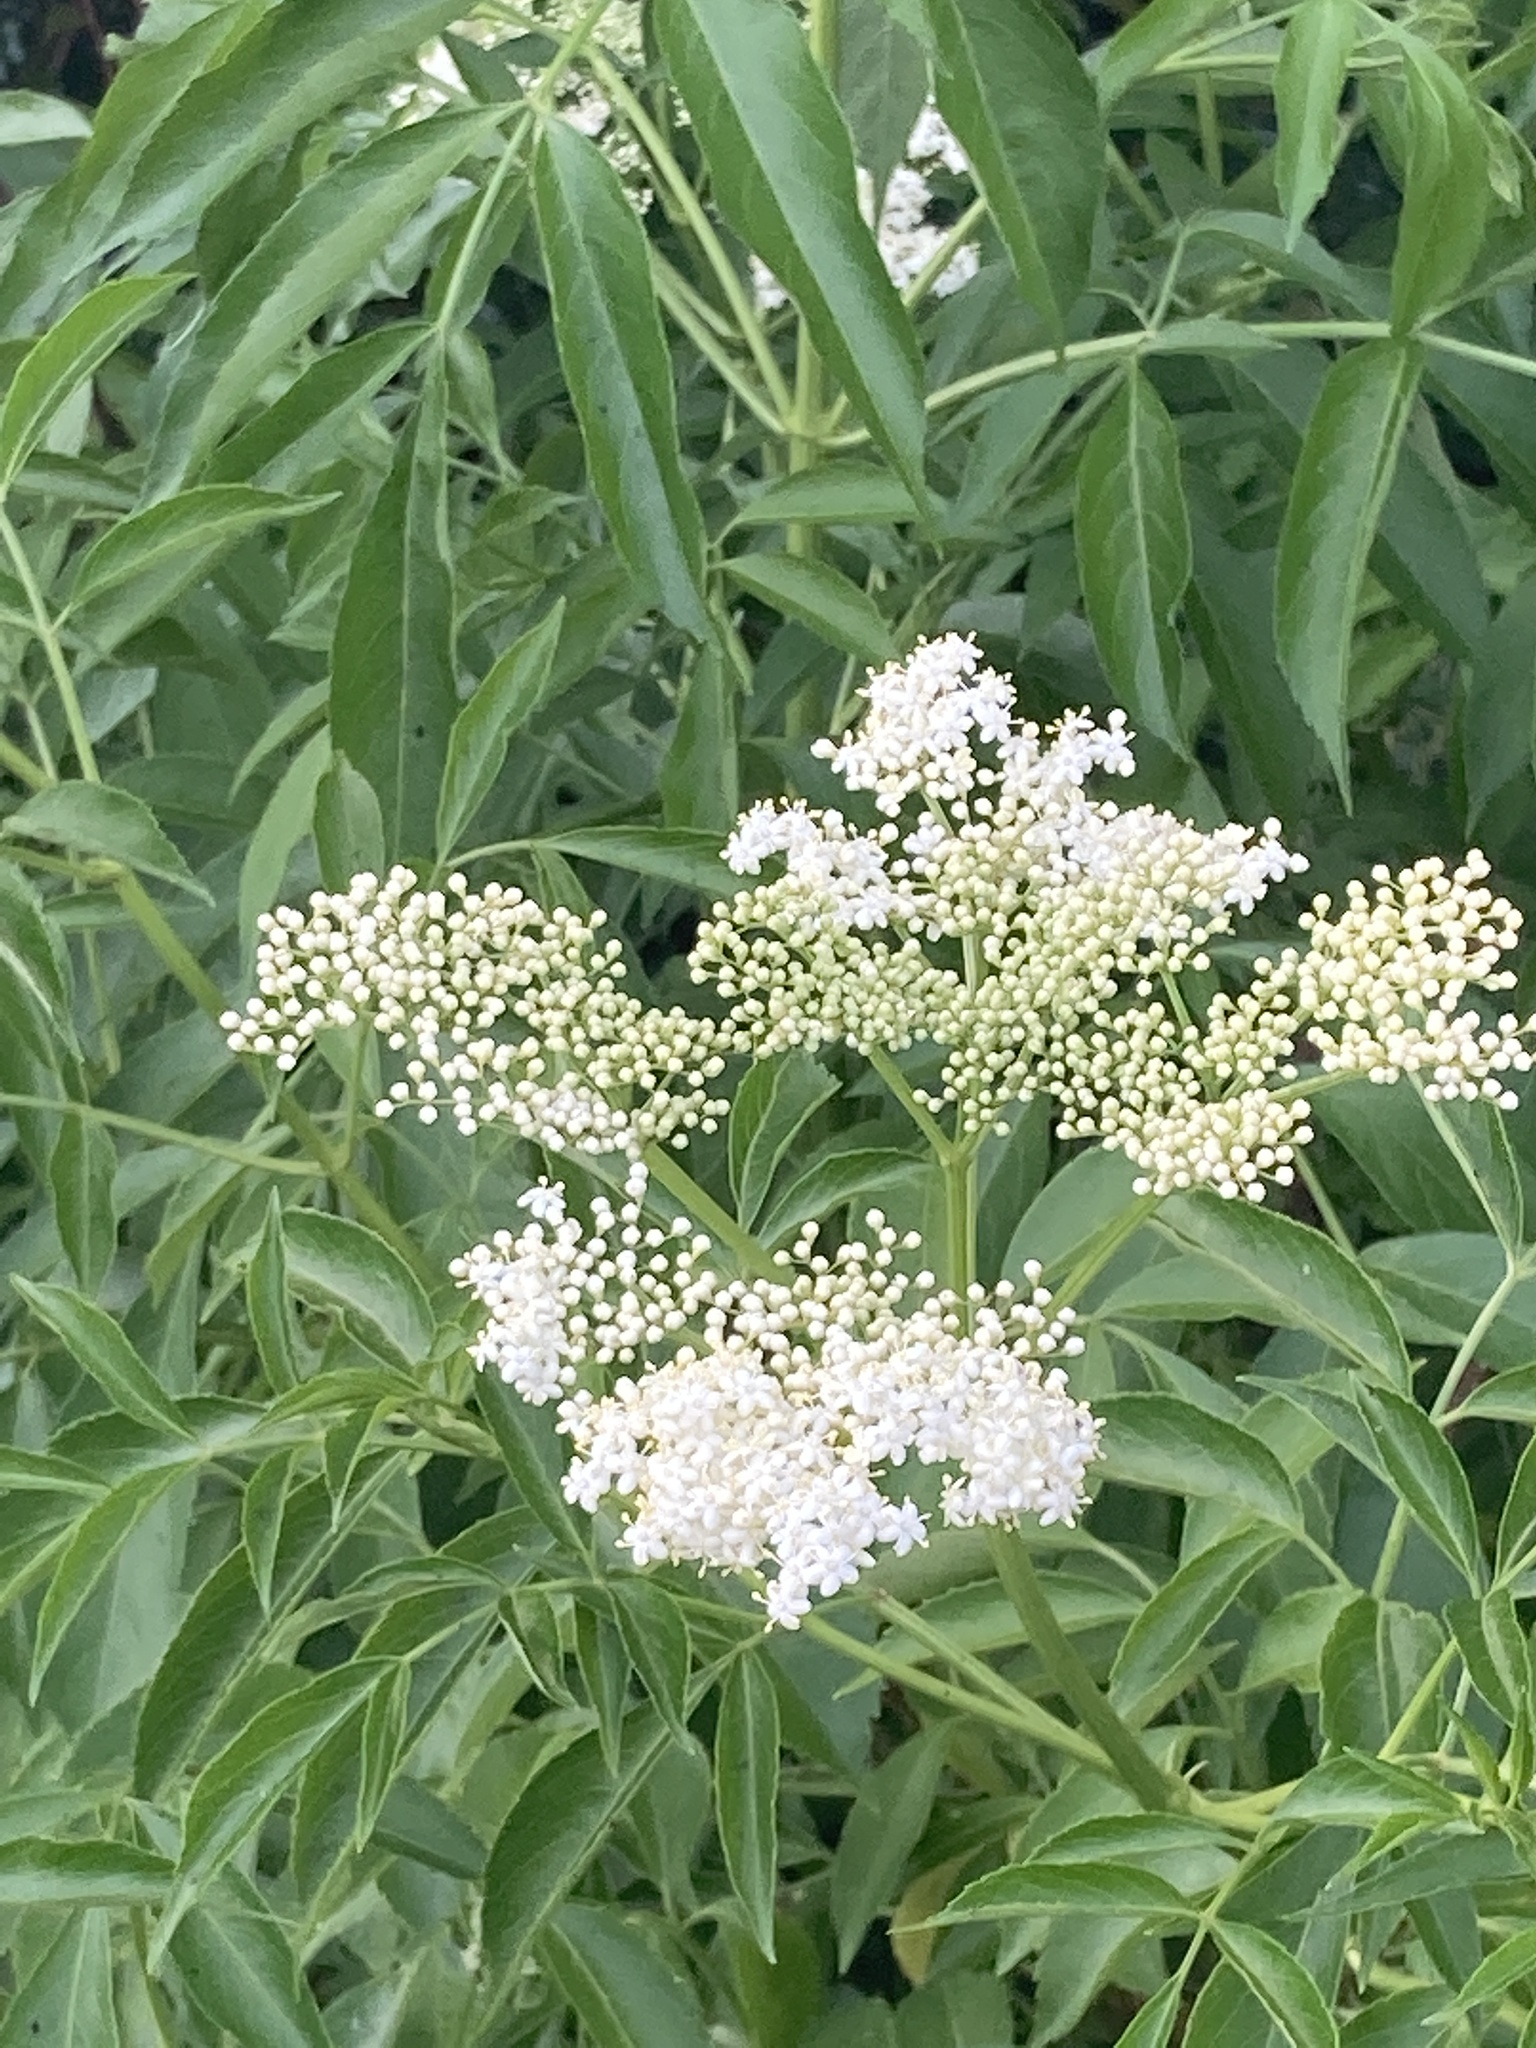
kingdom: Plantae
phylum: Tracheophyta
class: Magnoliopsida
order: Dipsacales
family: Viburnaceae
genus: Sambucus
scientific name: Sambucus canadensis
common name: American elder
